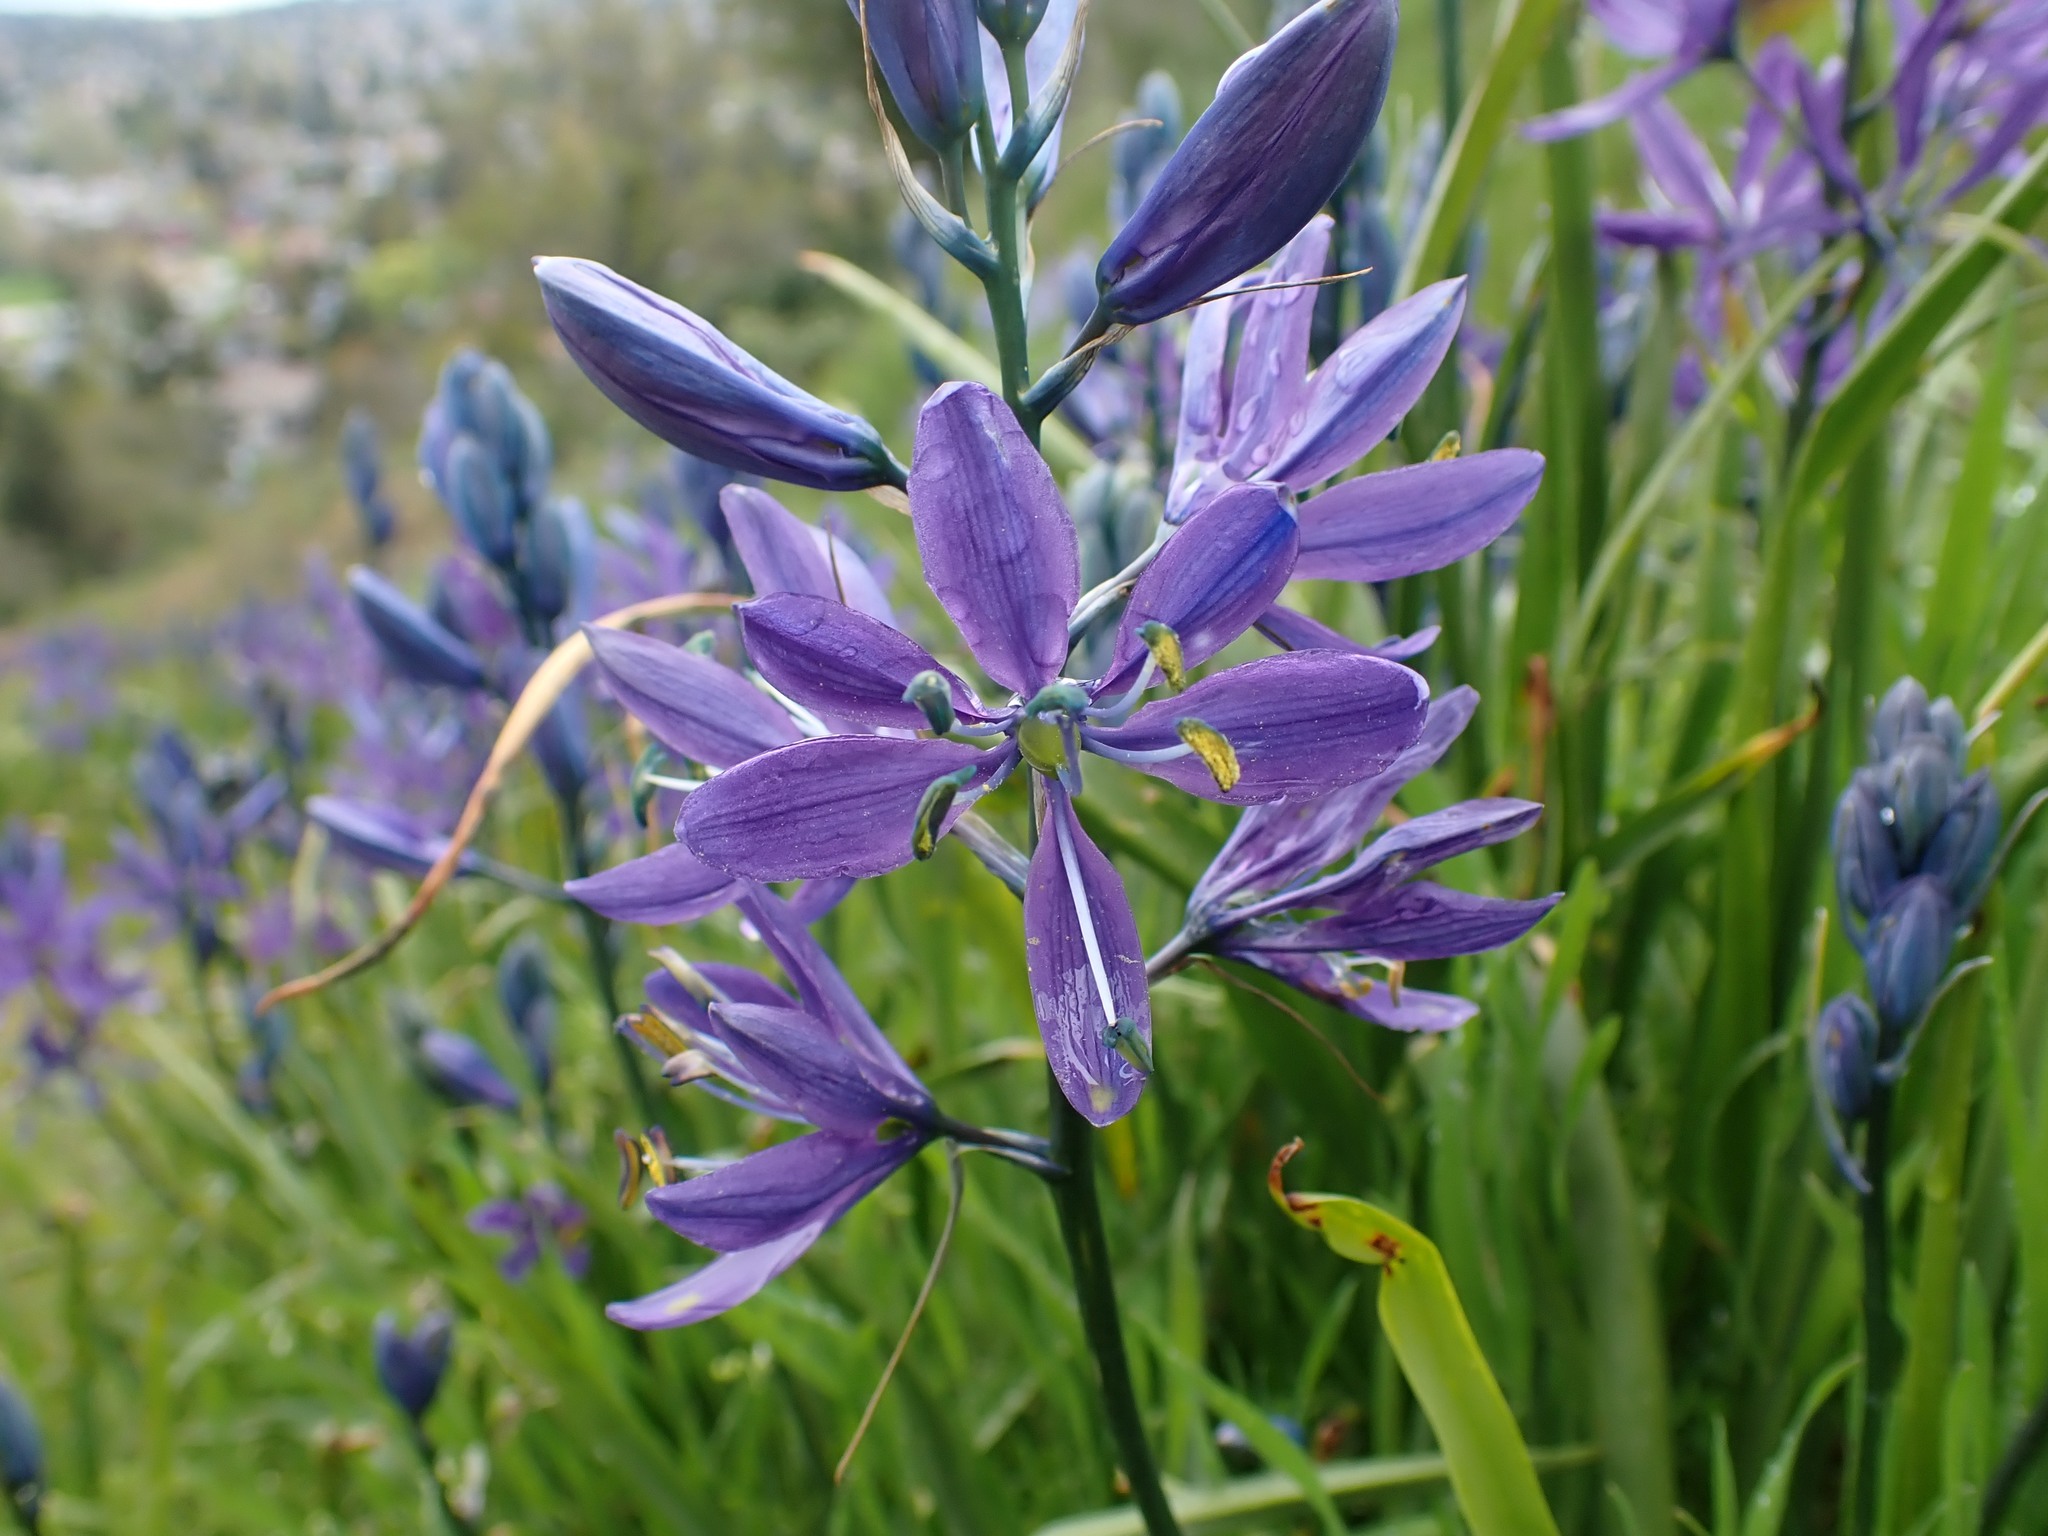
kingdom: Plantae
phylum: Tracheophyta
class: Liliopsida
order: Asparagales
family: Asparagaceae
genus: Camassia
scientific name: Camassia quamash
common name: Common camas
